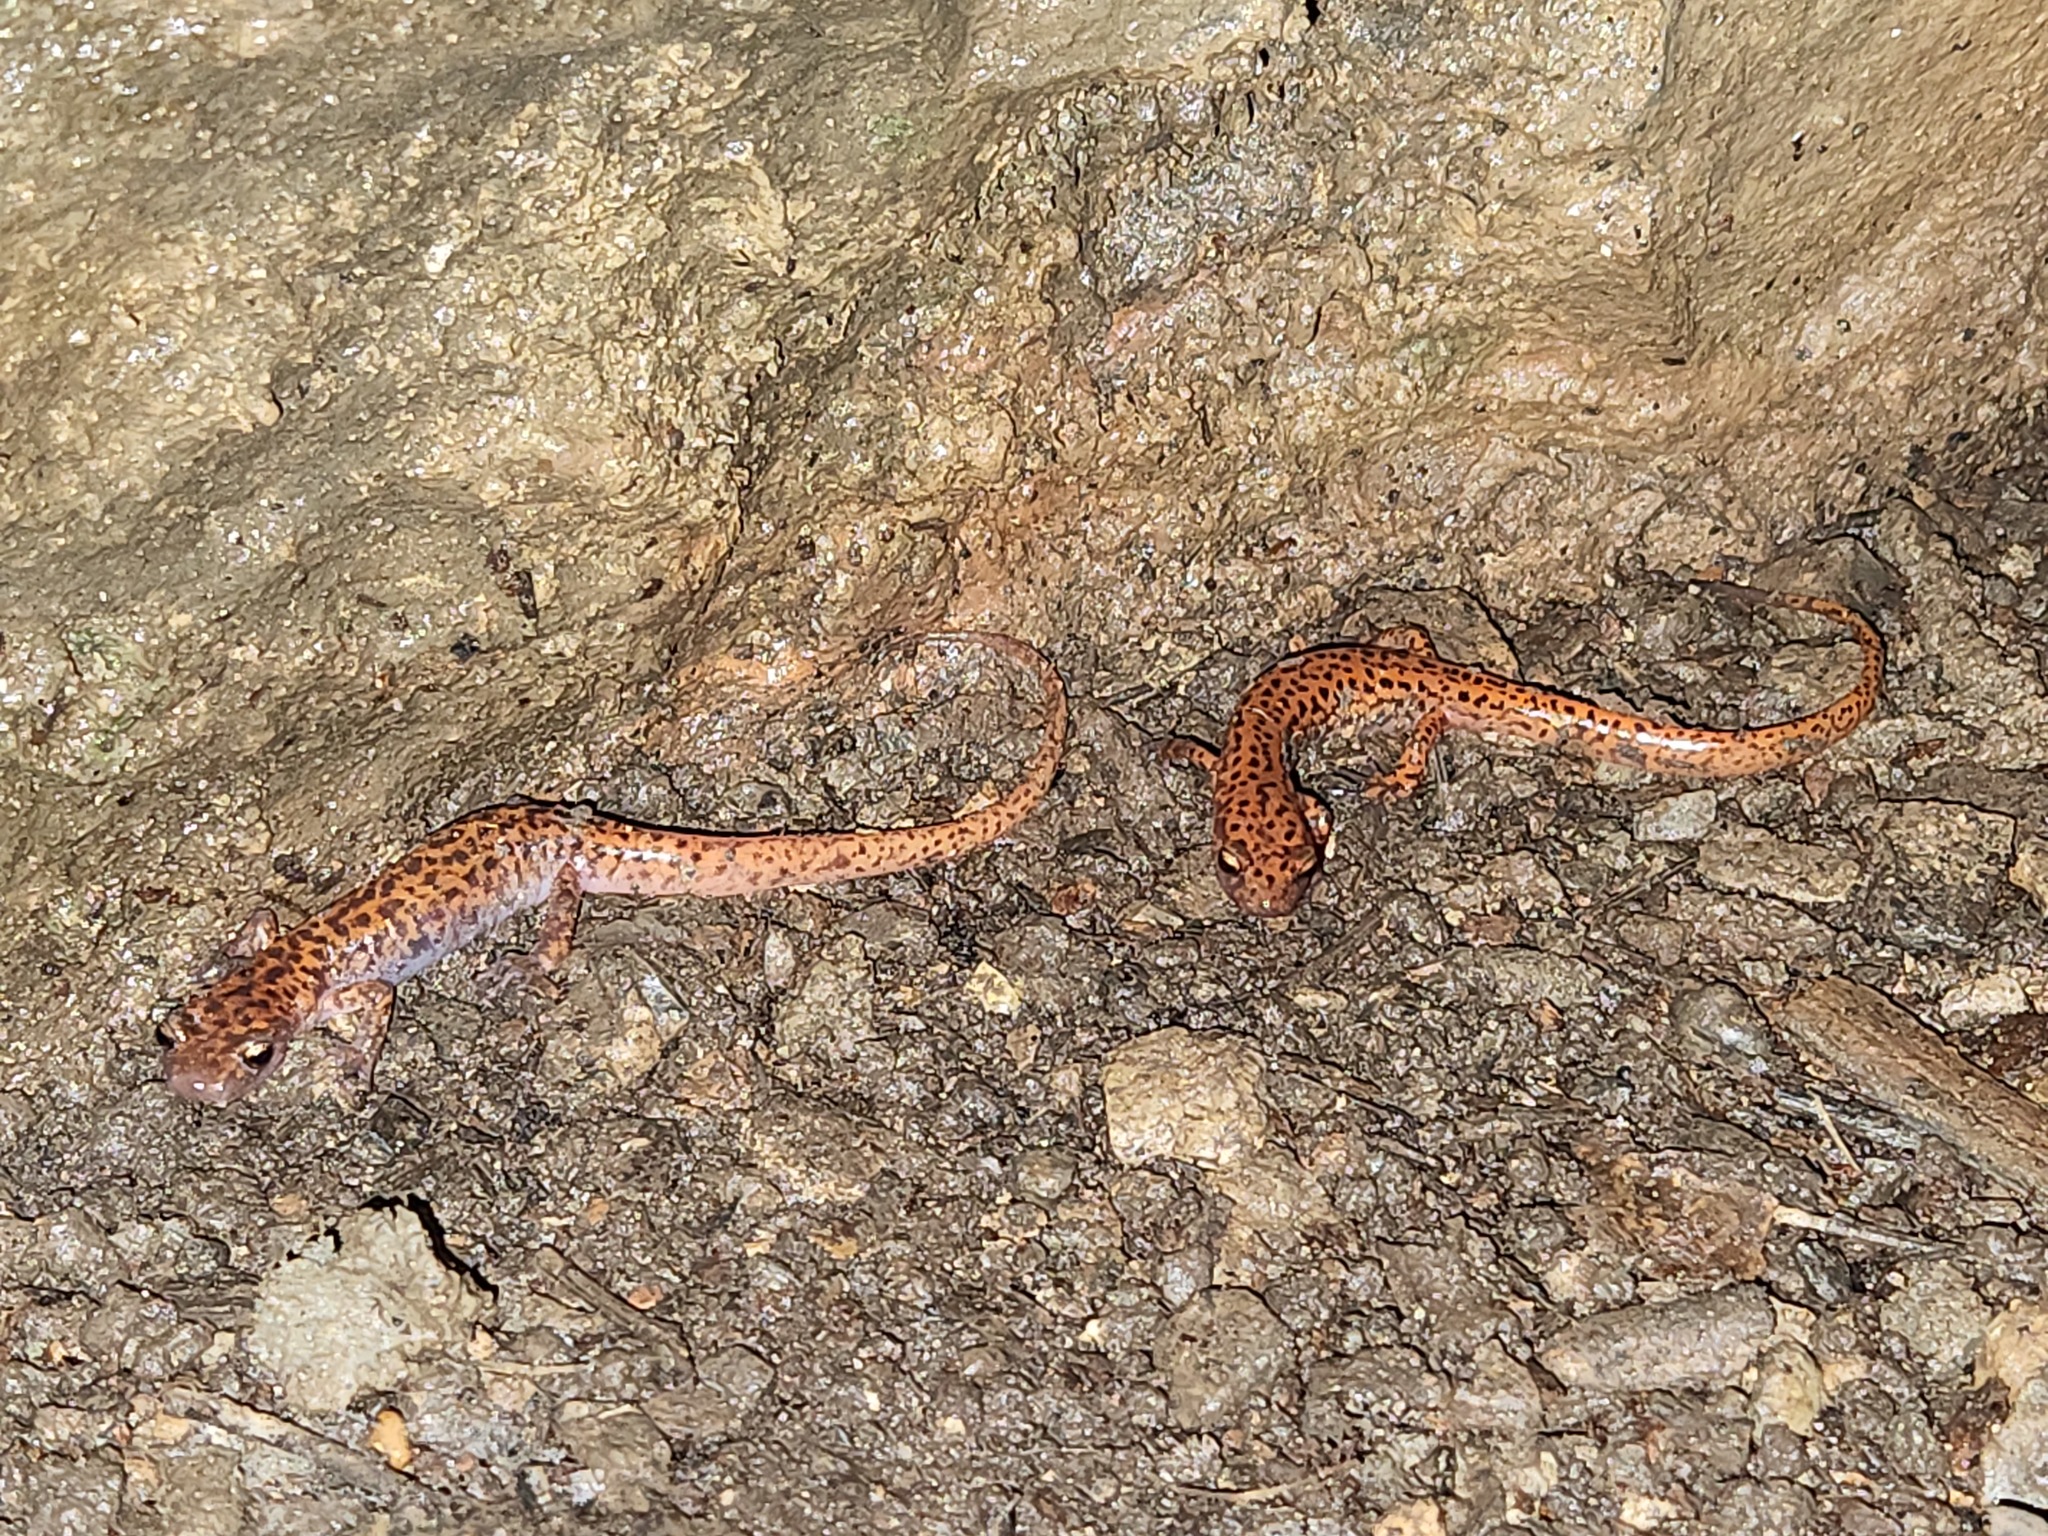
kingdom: Animalia
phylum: Chordata
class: Amphibia
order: Caudata
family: Plethodontidae
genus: Eurycea
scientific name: Eurycea lucifuga
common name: Cave salamander
